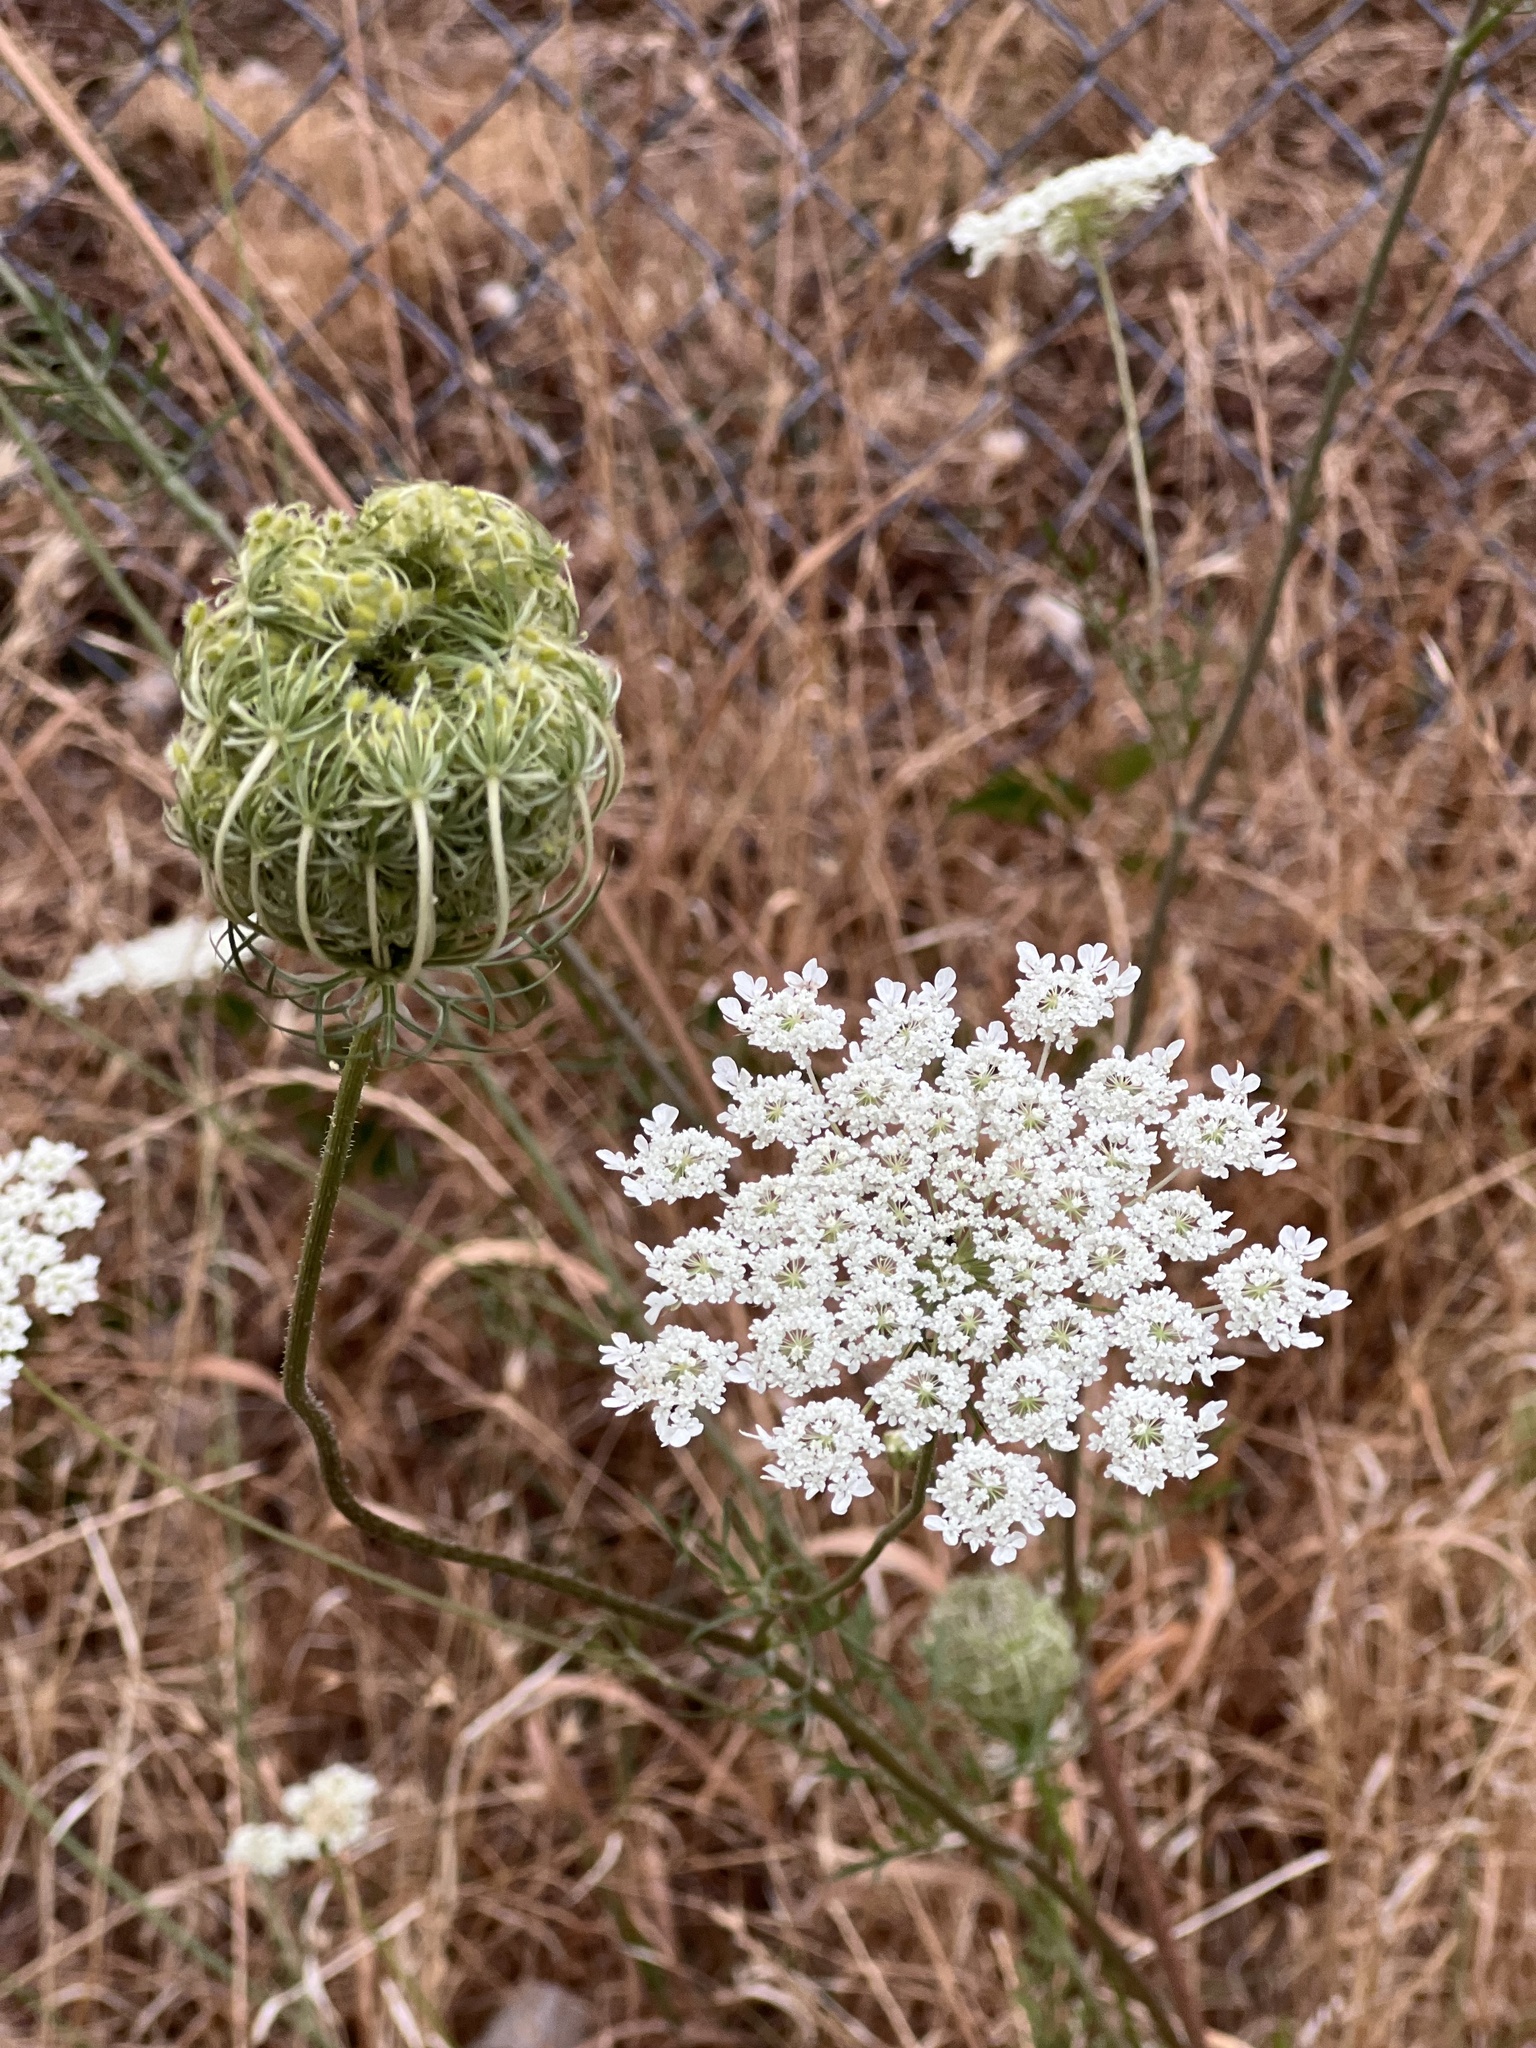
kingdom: Plantae
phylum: Tracheophyta
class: Magnoliopsida
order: Apiales
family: Apiaceae
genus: Daucus
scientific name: Daucus carota
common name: Wild carrot
